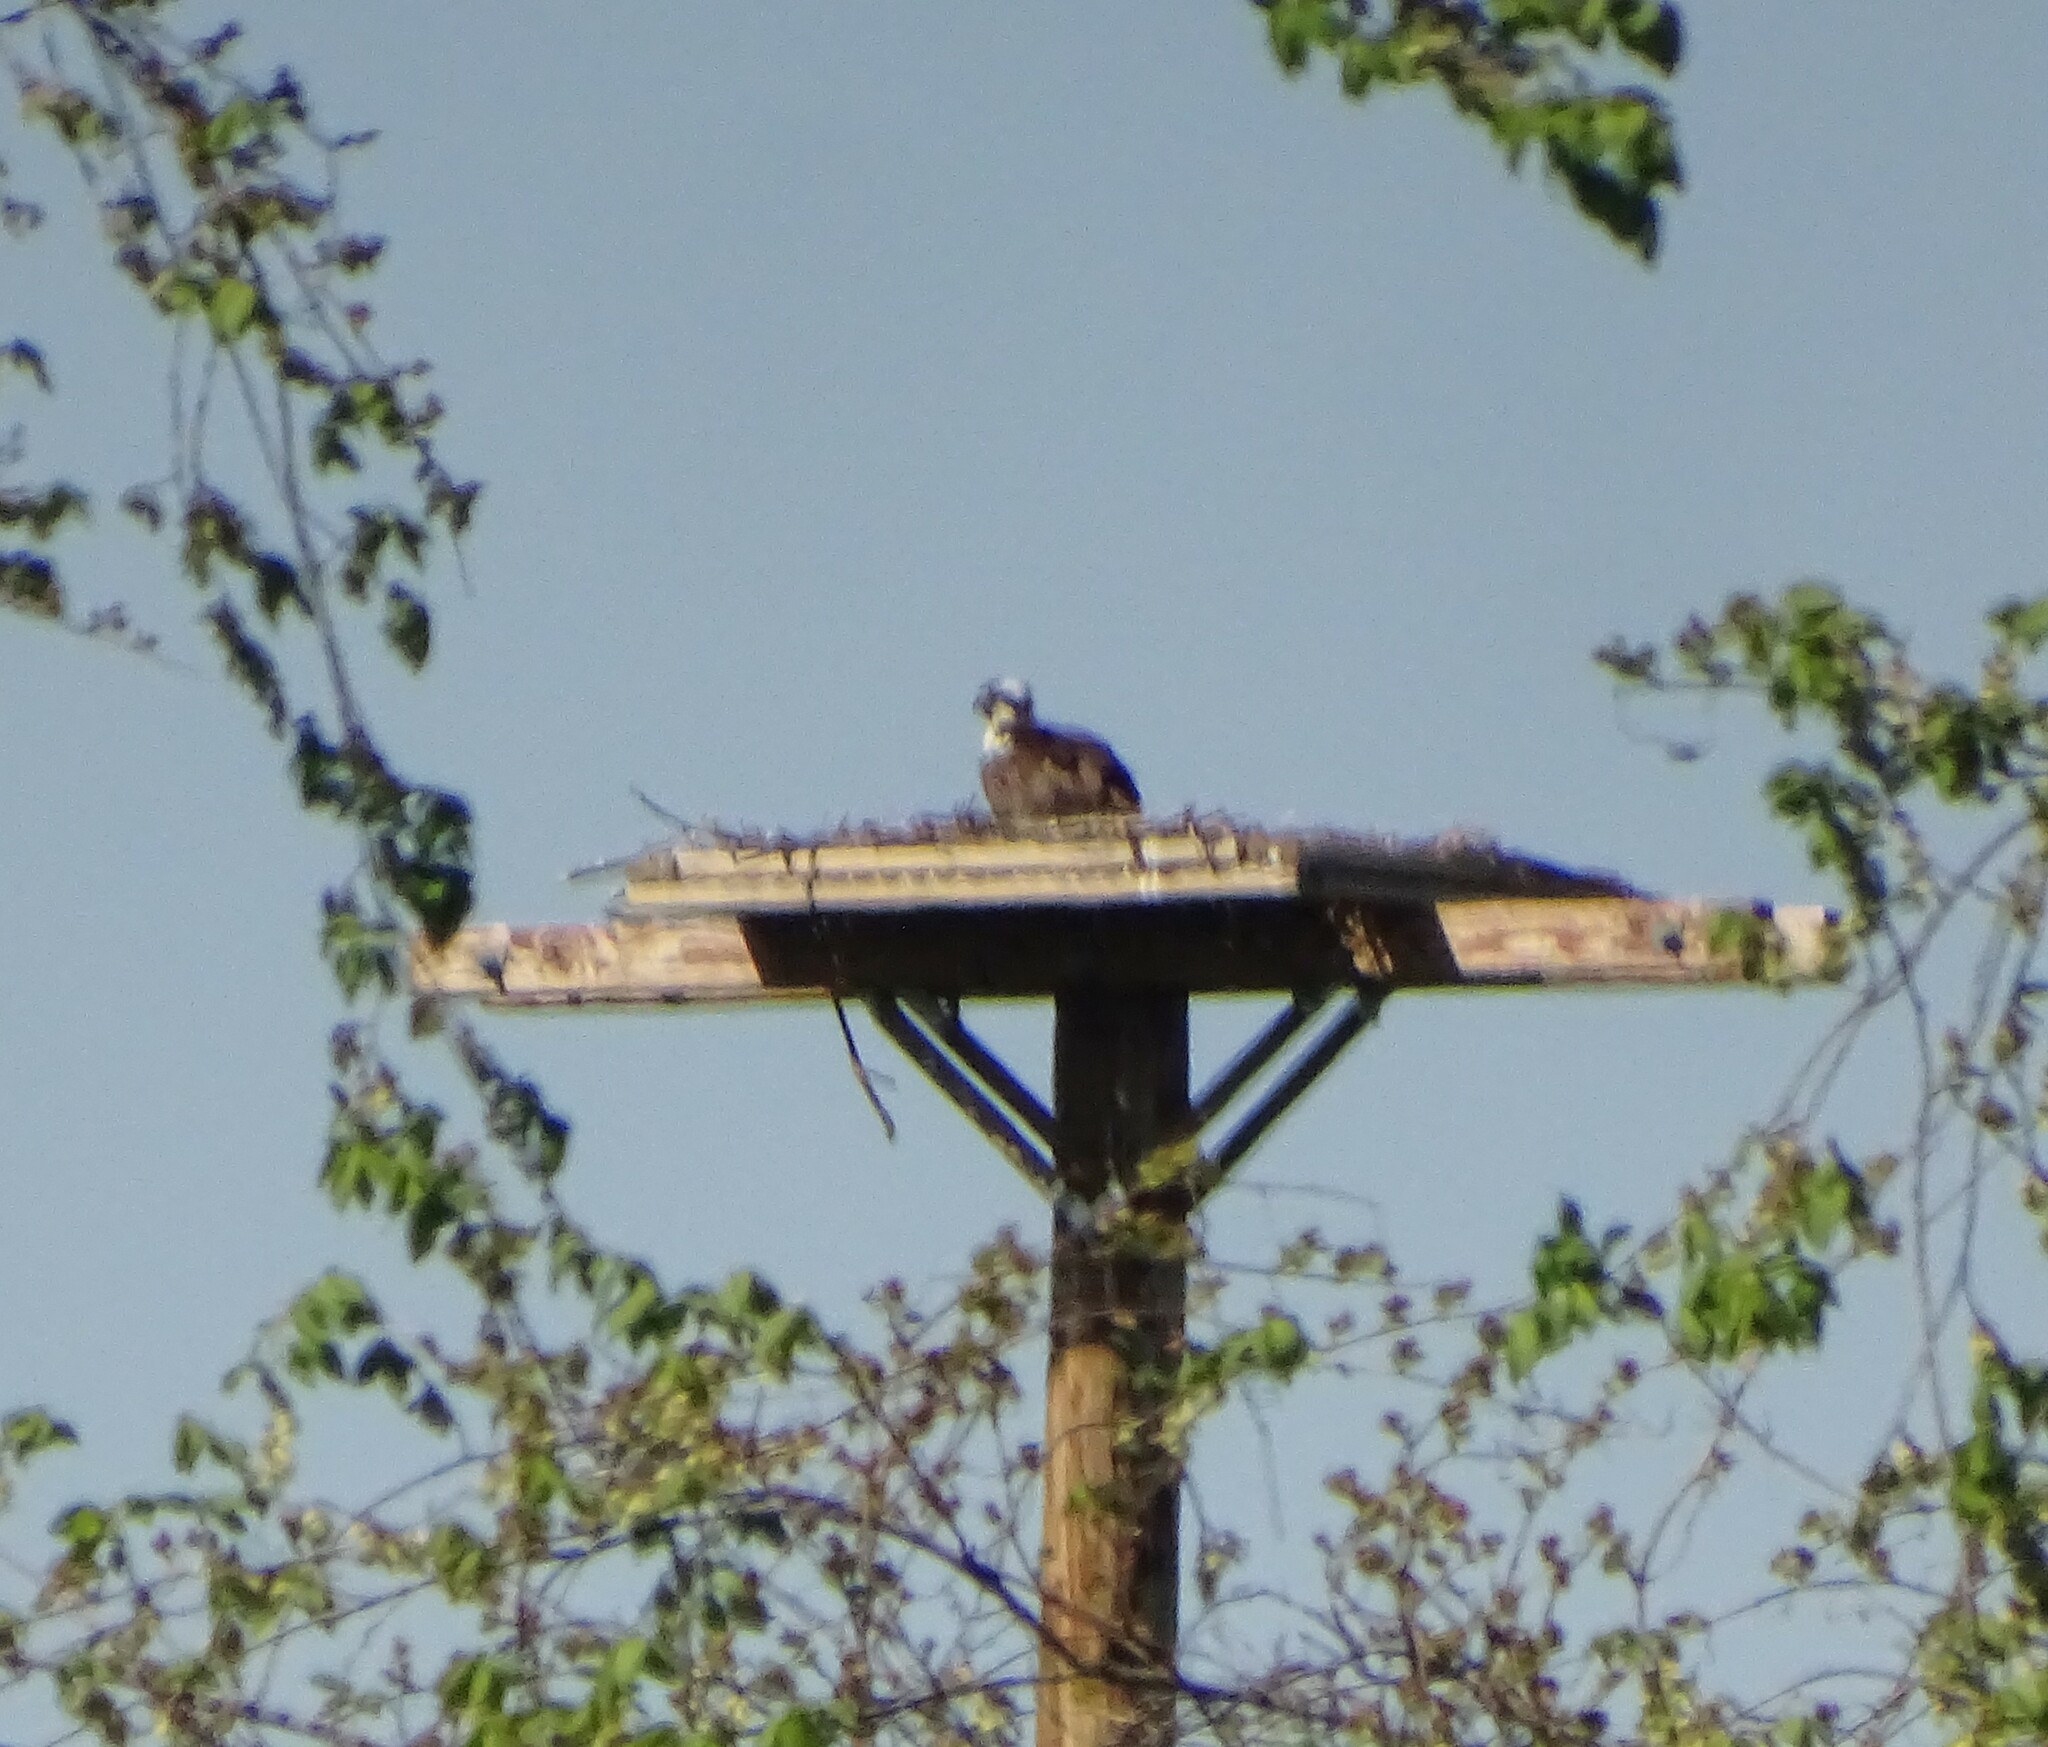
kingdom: Animalia
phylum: Chordata
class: Aves
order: Accipitriformes
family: Pandionidae
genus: Pandion
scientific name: Pandion haliaetus
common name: Osprey
